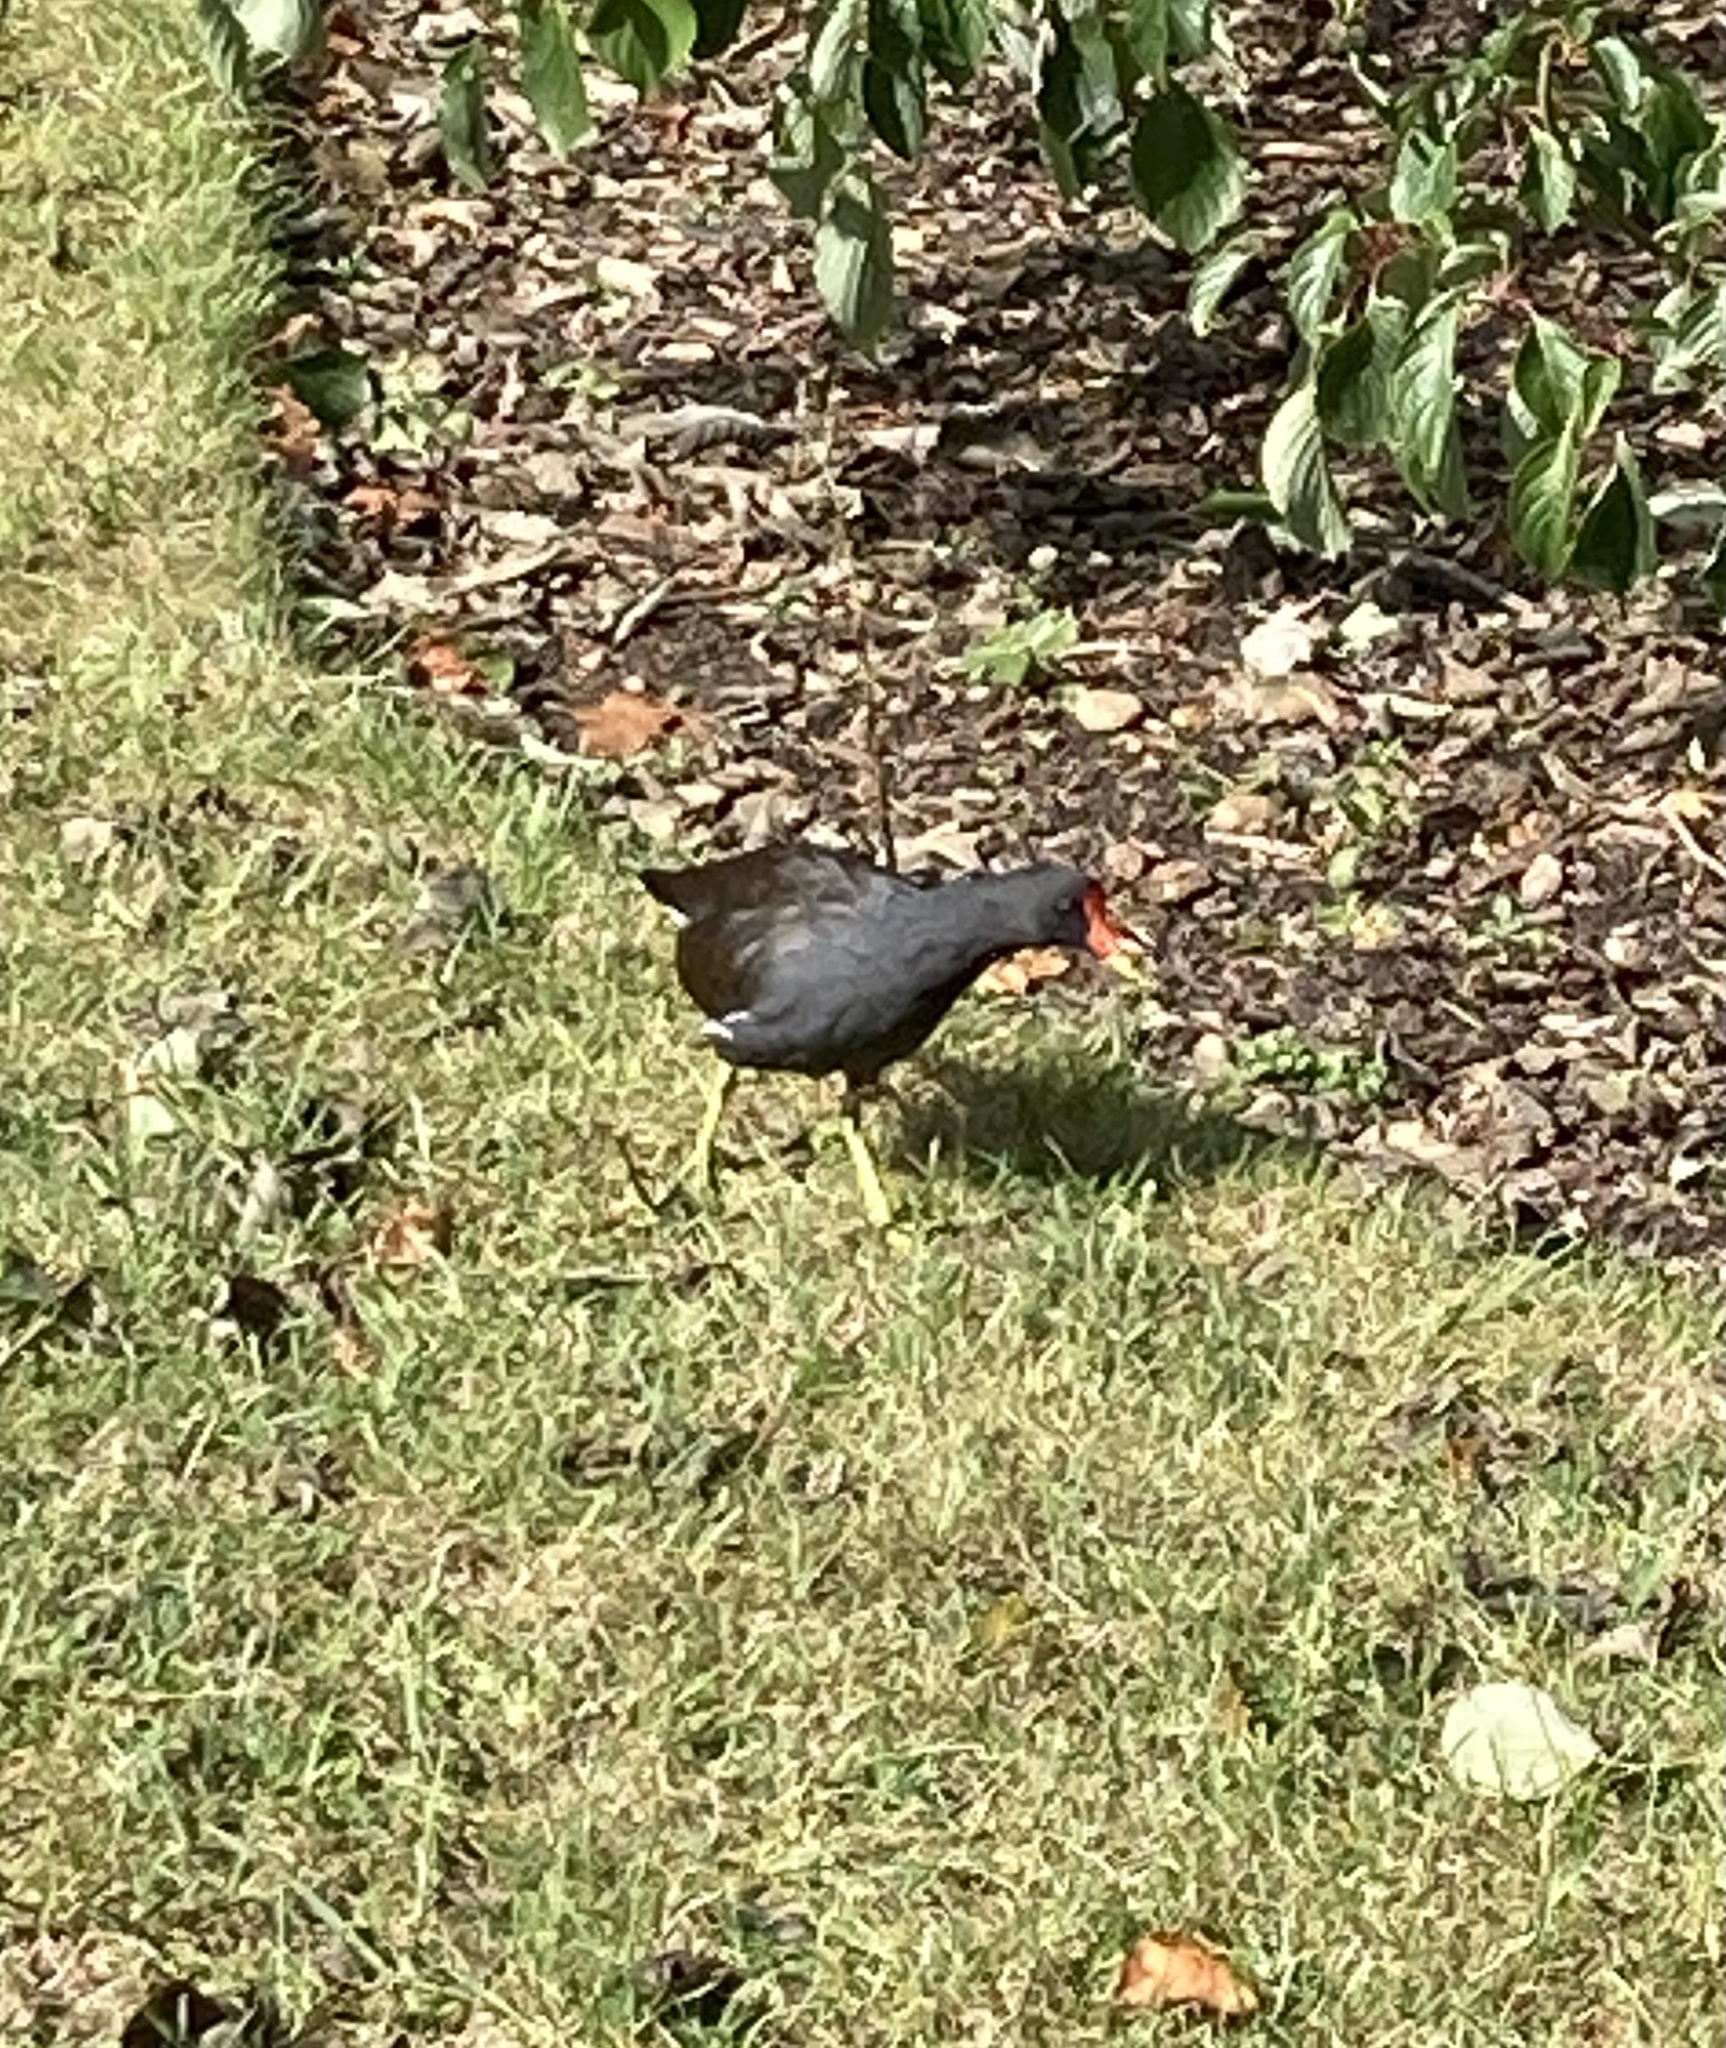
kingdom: Animalia
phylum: Chordata
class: Aves
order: Gruiformes
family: Rallidae
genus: Gallinula
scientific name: Gallinula chloropus
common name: Common moorhen
